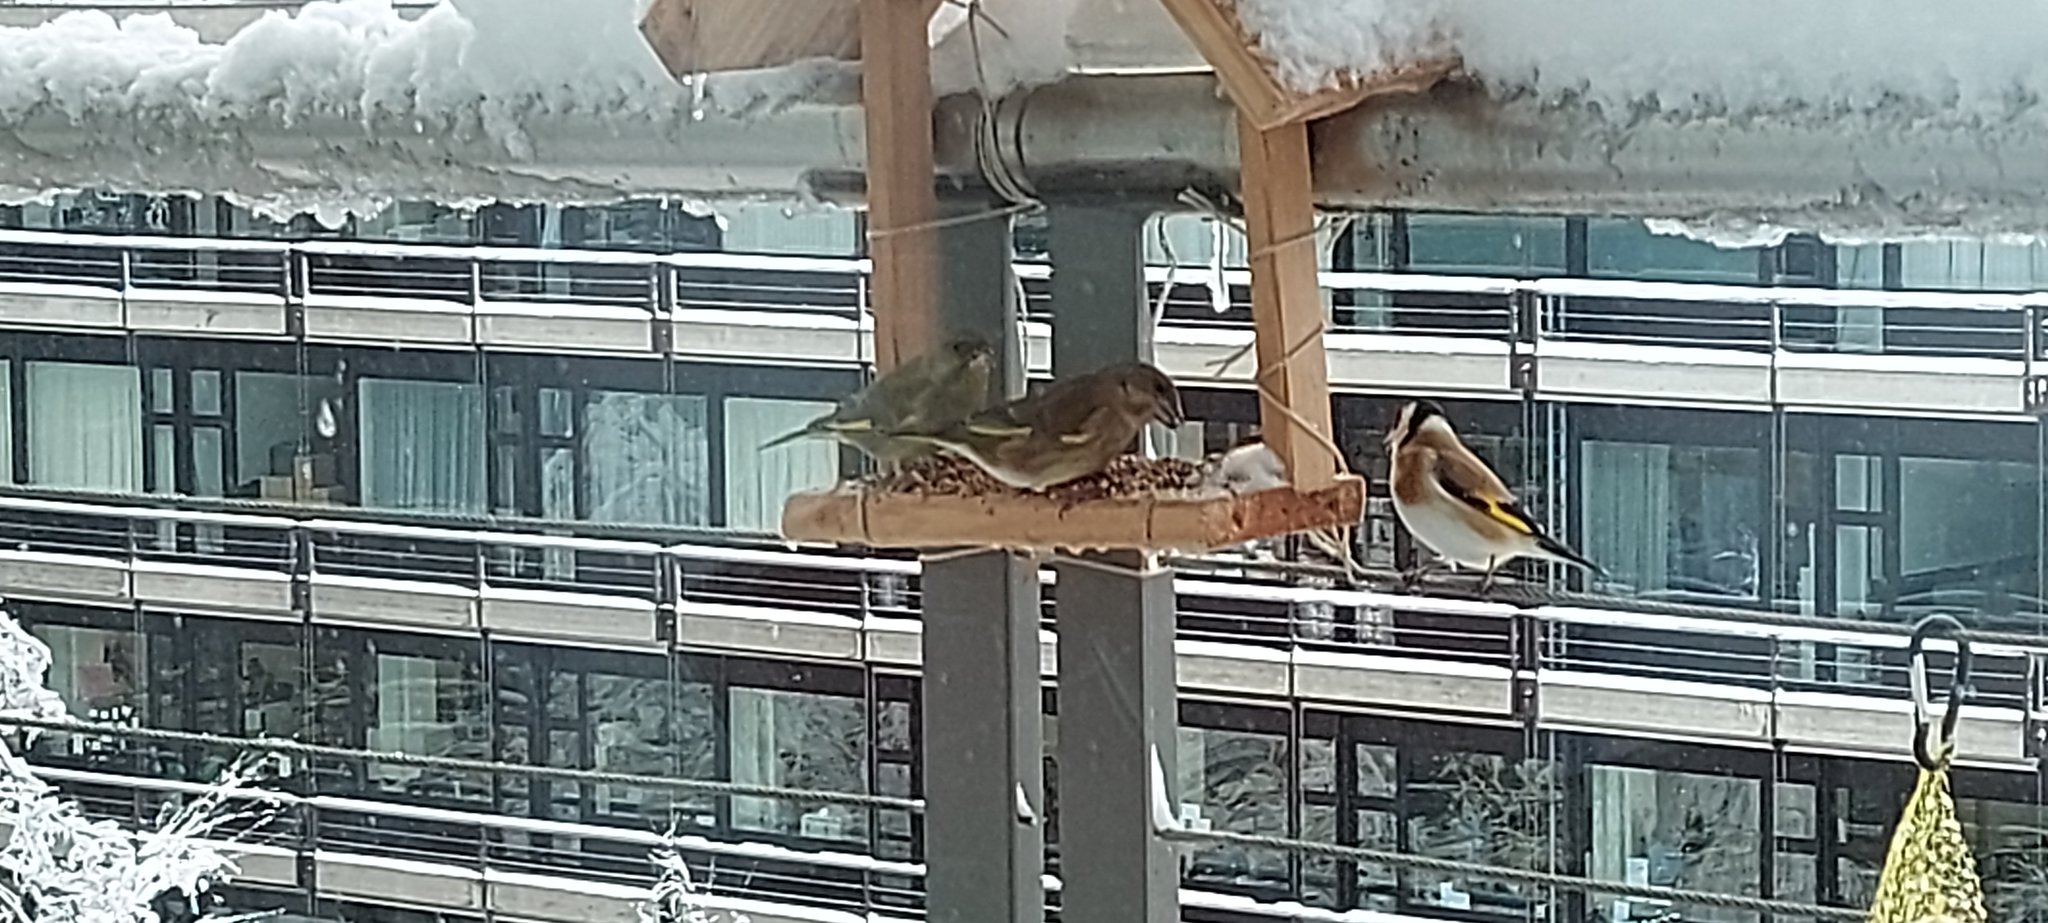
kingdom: Plantae
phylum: Tracheophyta
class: Liliopsida
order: Poales
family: Poaceae
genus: Chloris
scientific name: Chloris chloris
